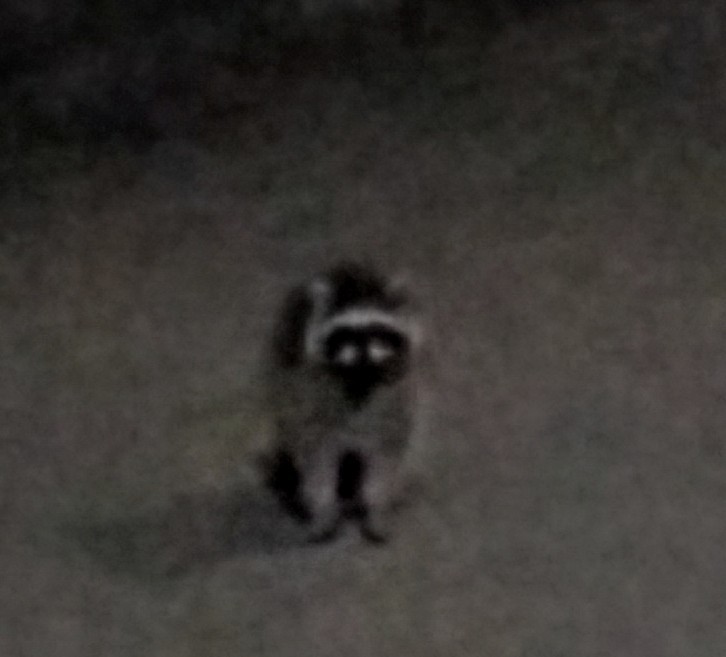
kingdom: Animalia
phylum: Chordata
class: Mammalia
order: Carnivora
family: Procyonidae
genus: Procyon
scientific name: Procyon lotor
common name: Raccoon
